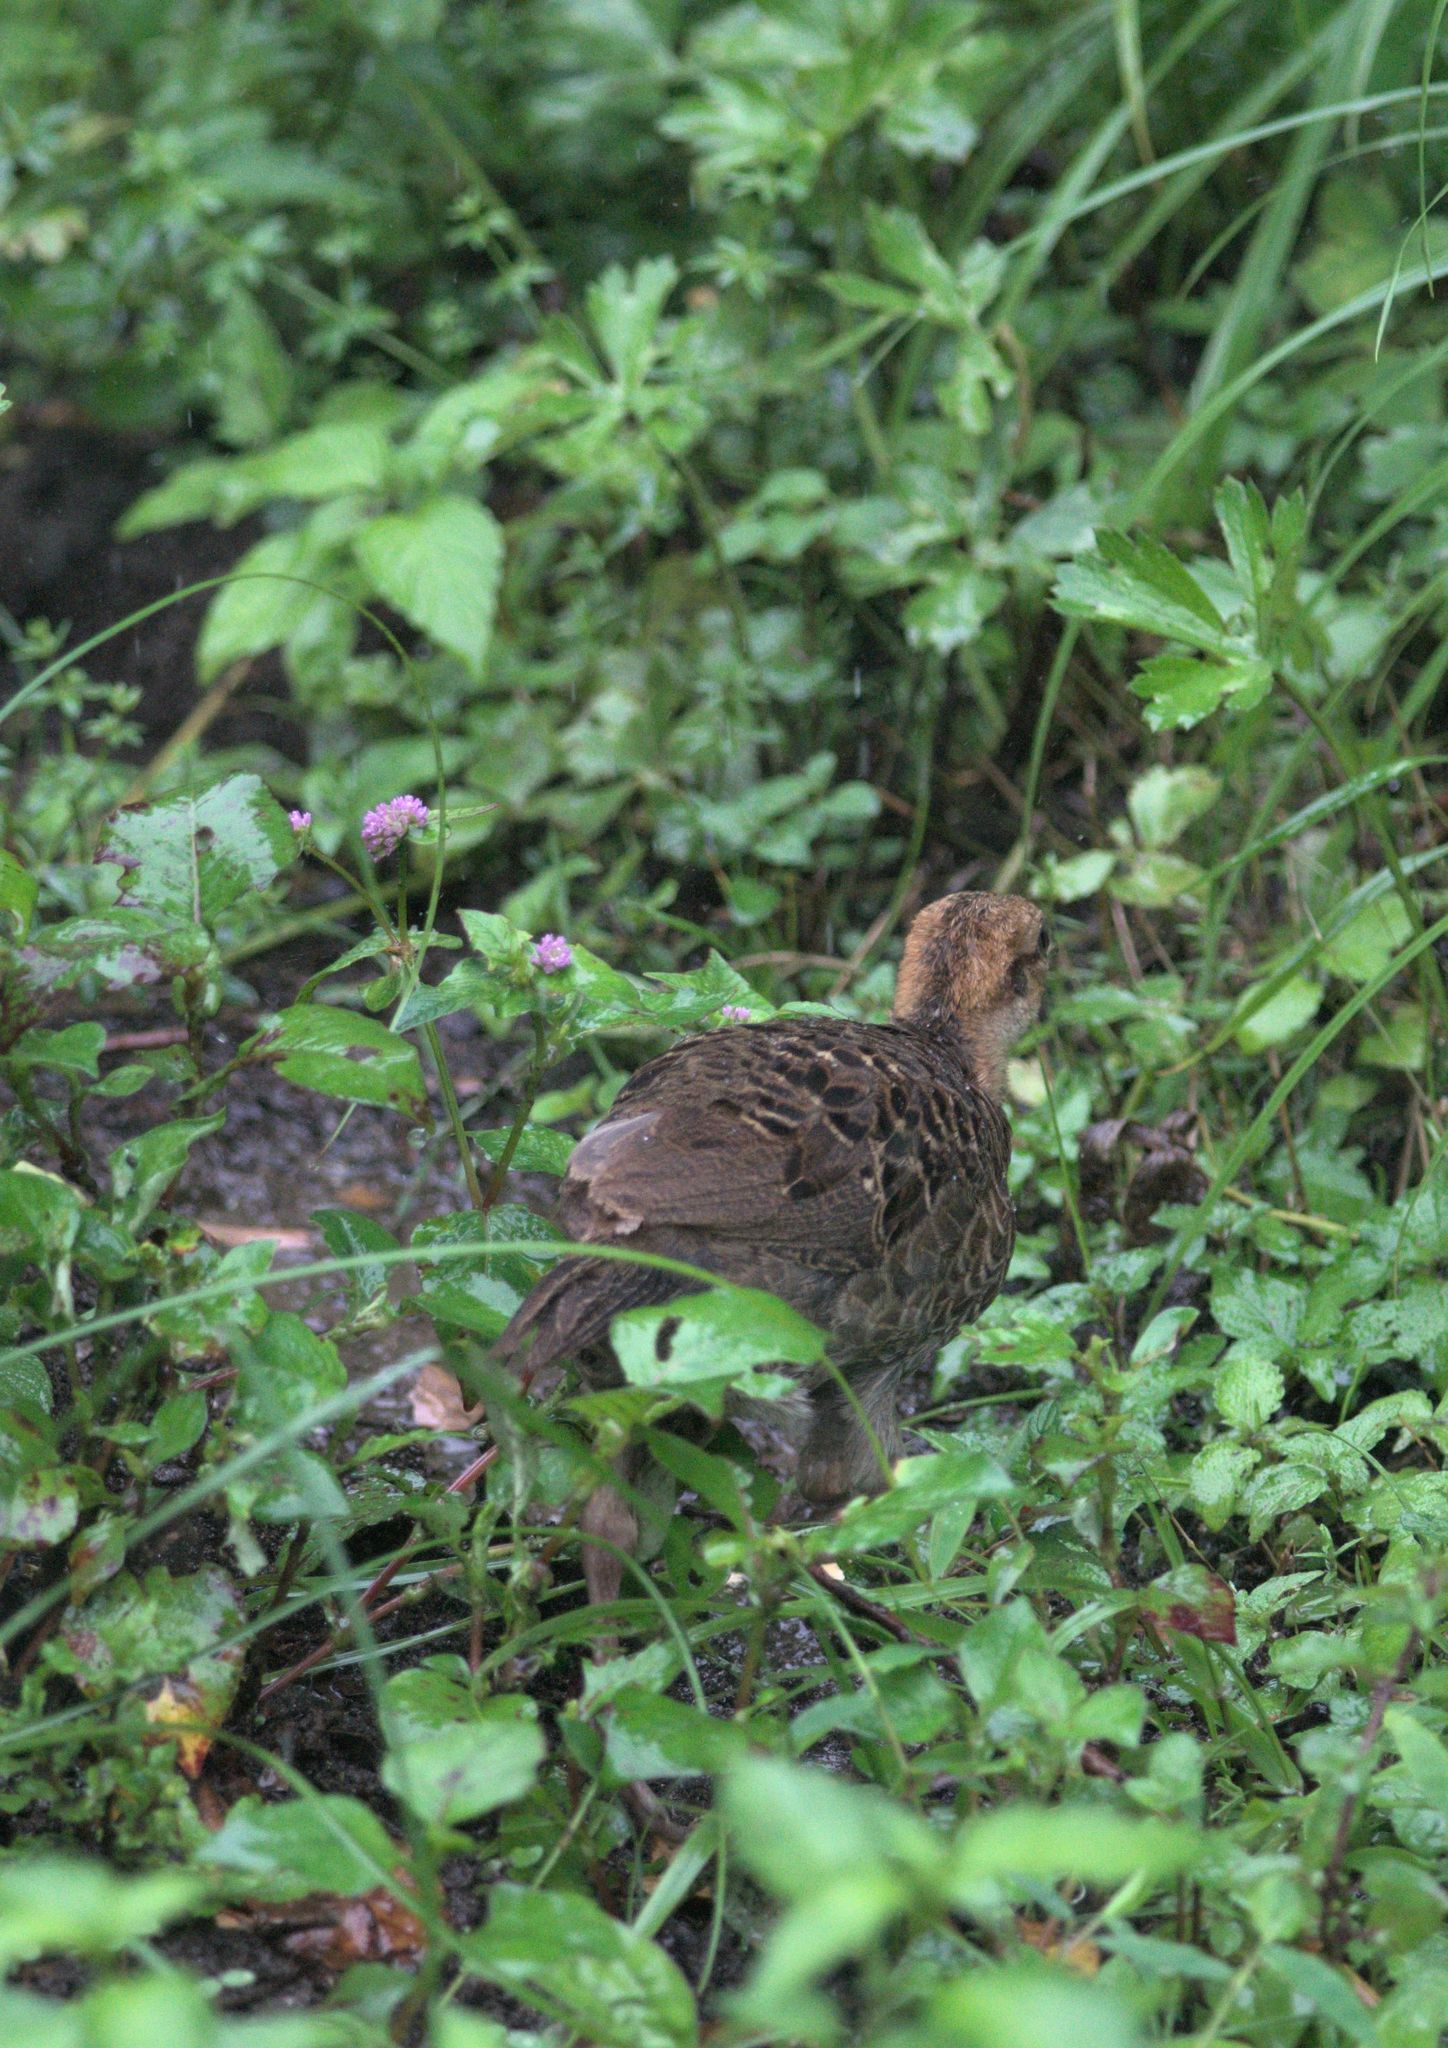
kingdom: Animalia
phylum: Chordata
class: Aves
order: Galliformes
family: Phasianidae
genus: Lophura
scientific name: Lophura leucomelanos
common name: Kalij pheasant
